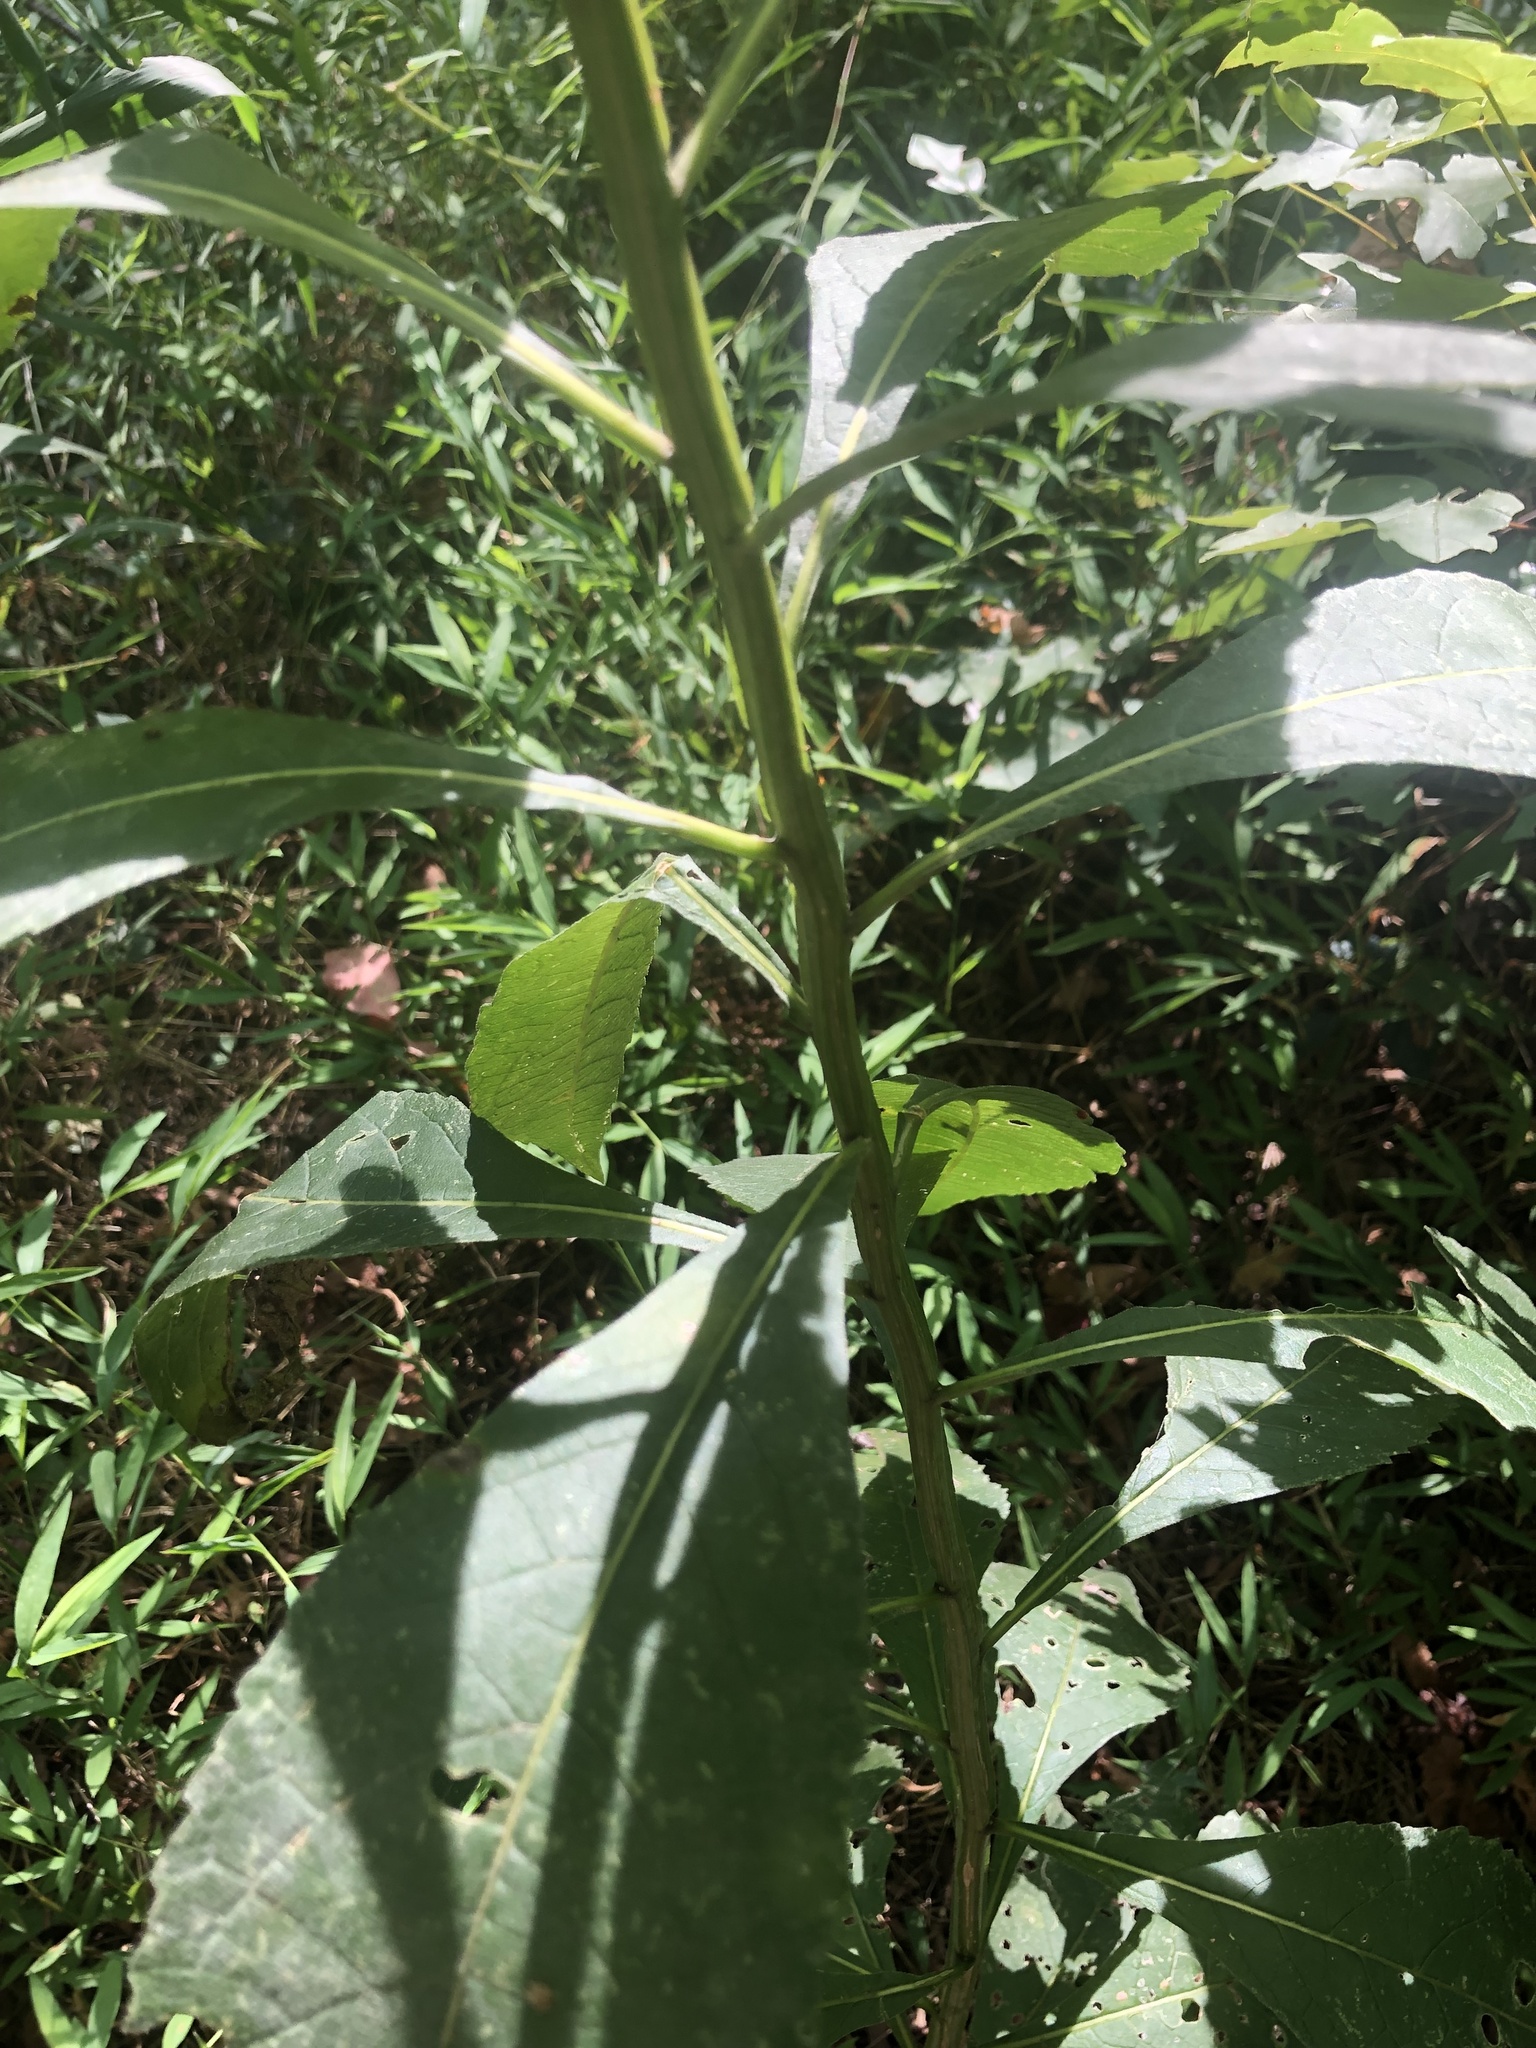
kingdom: Plantae
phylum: Tracheophyta
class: Magnoliopsida
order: Asterales
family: Asteraceae
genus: Verbesina
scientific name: Verbesina alternifolia
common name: Wingstem
